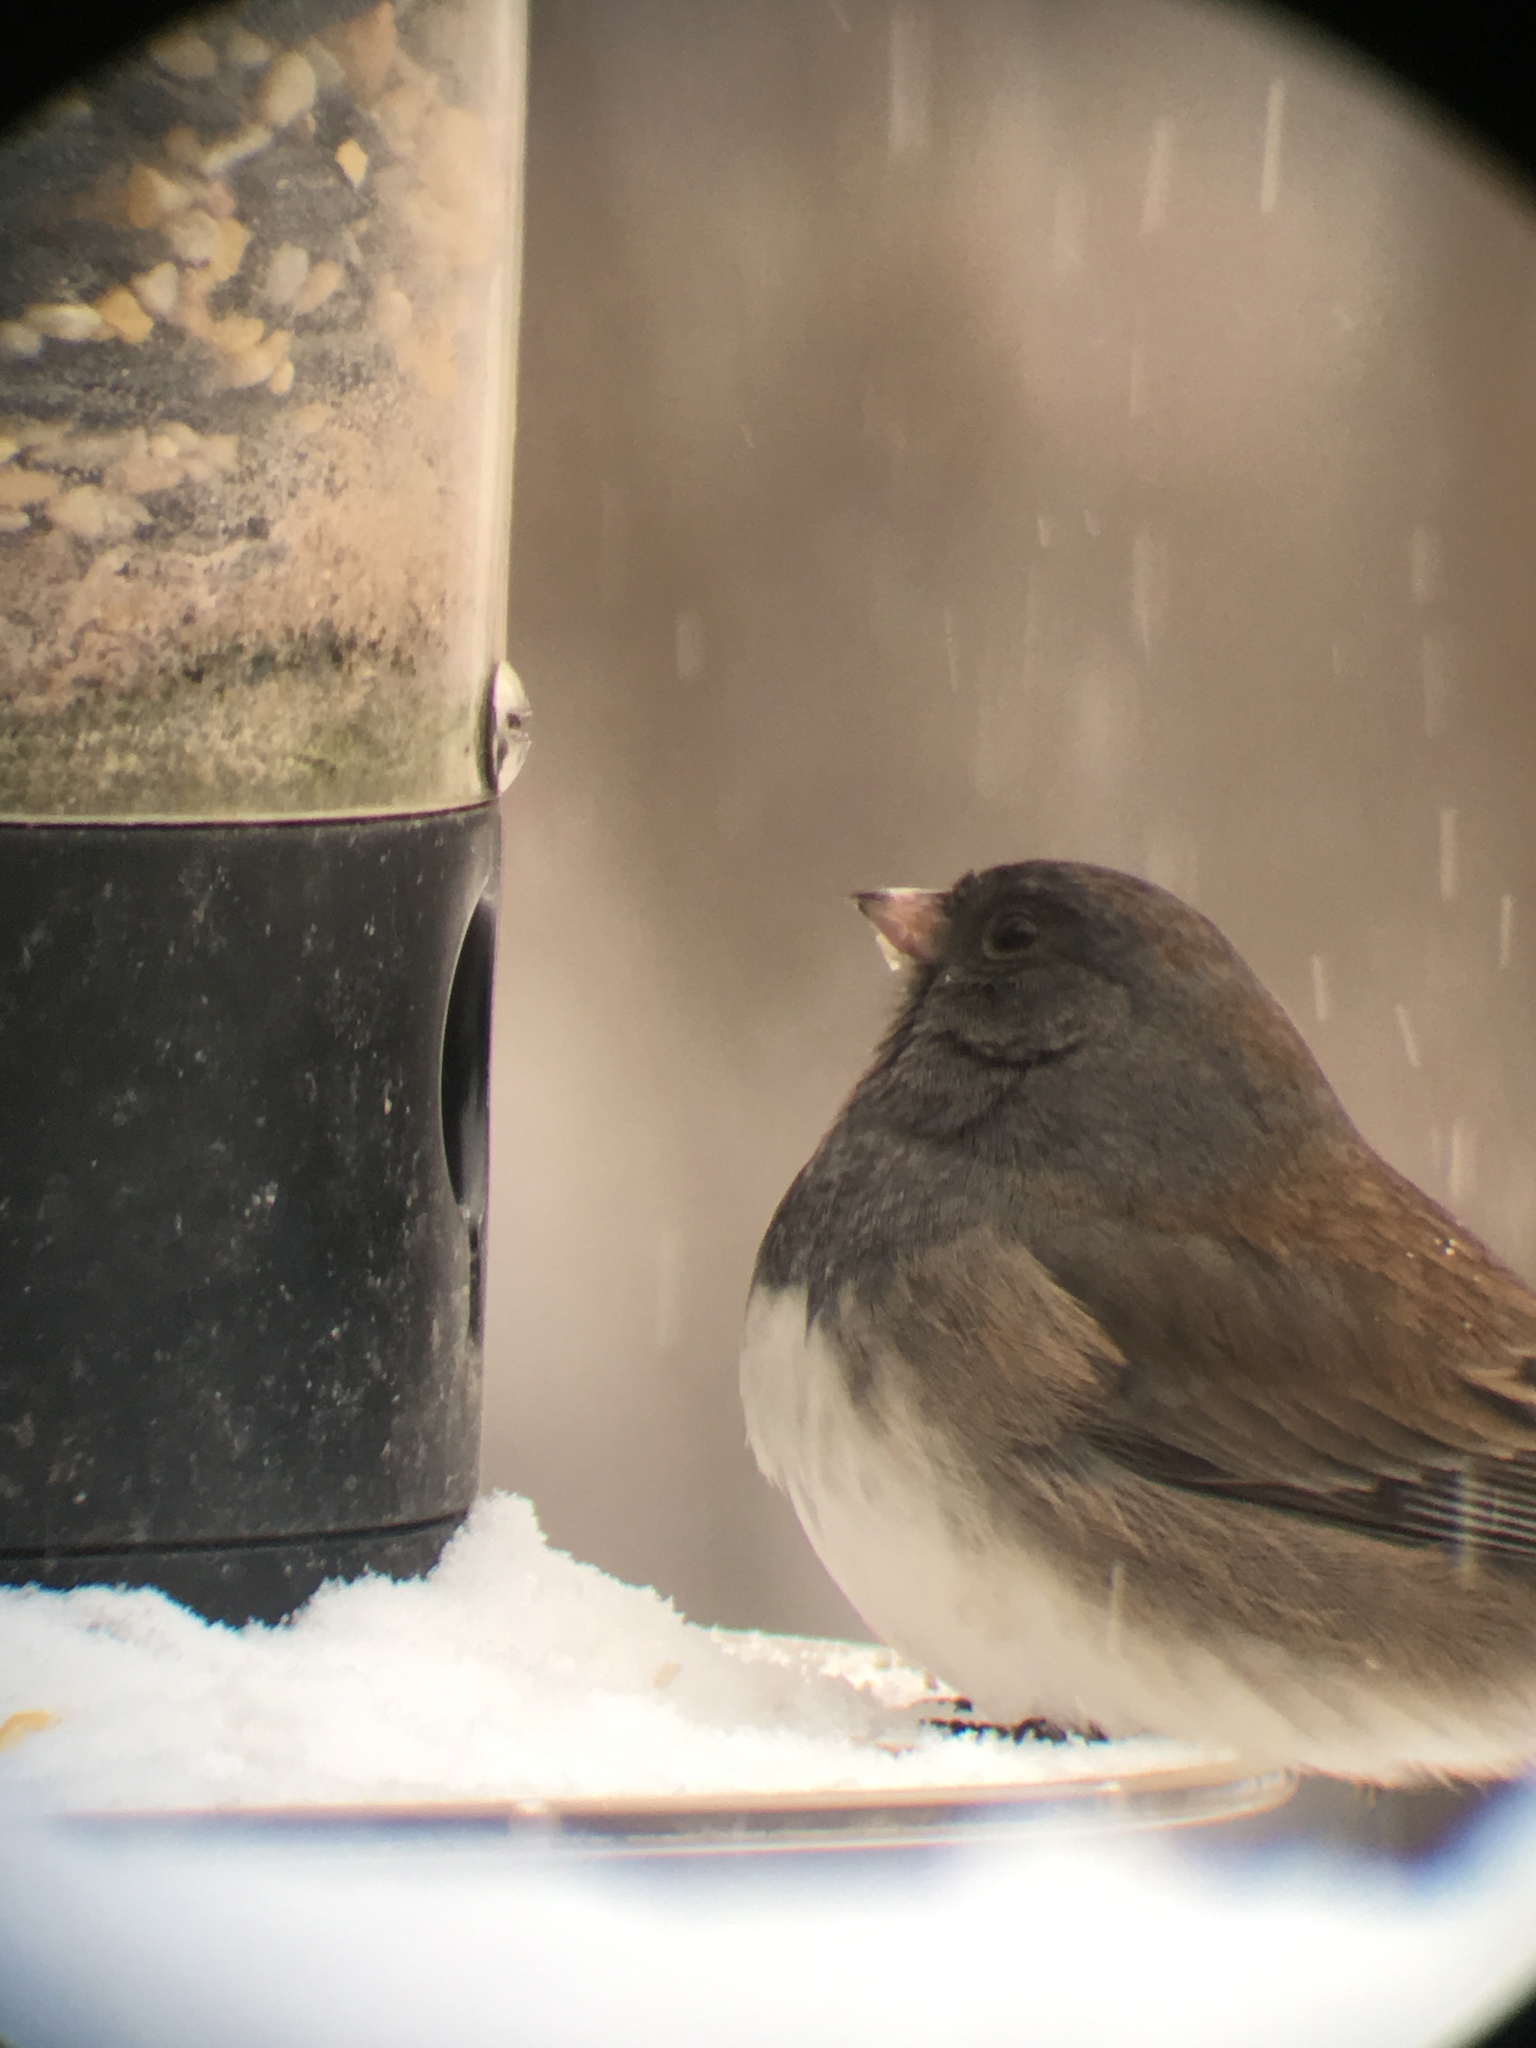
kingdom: Animalia
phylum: Chordata
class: Aves
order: Passeriformes
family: Passerellidae
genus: Junco
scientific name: Junco hyemalis
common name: Dark-eyed junco
